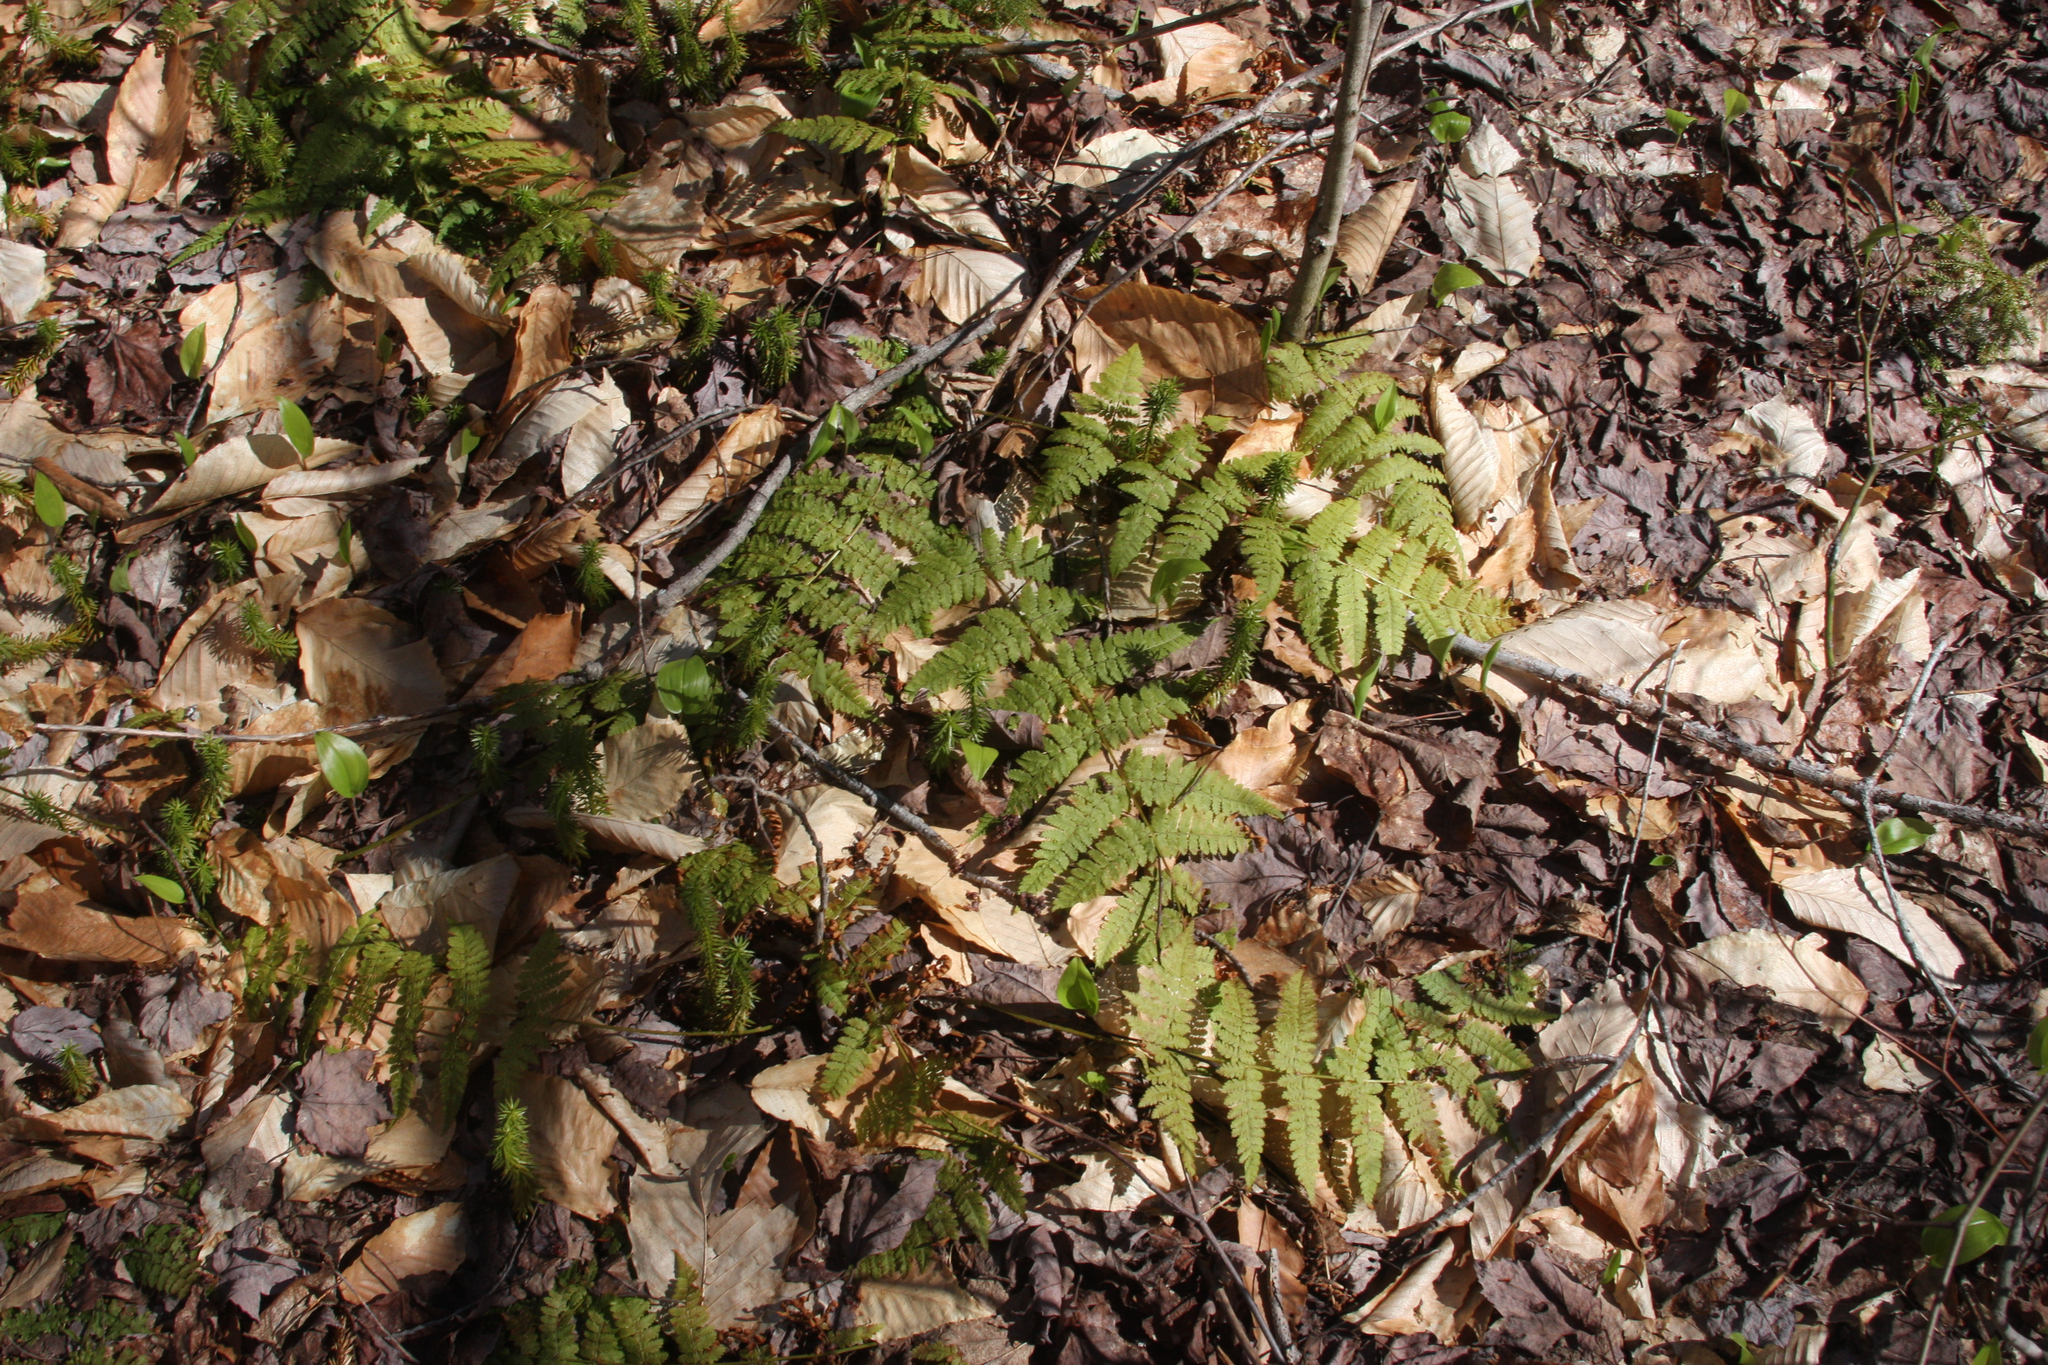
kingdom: Plantae
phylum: Tracheophyta
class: Polypodiopsida
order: Polypodiales
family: Dryopteridaceae
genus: Dryopteris
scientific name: Dryopteris intermedia
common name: Evergreen wood fern
